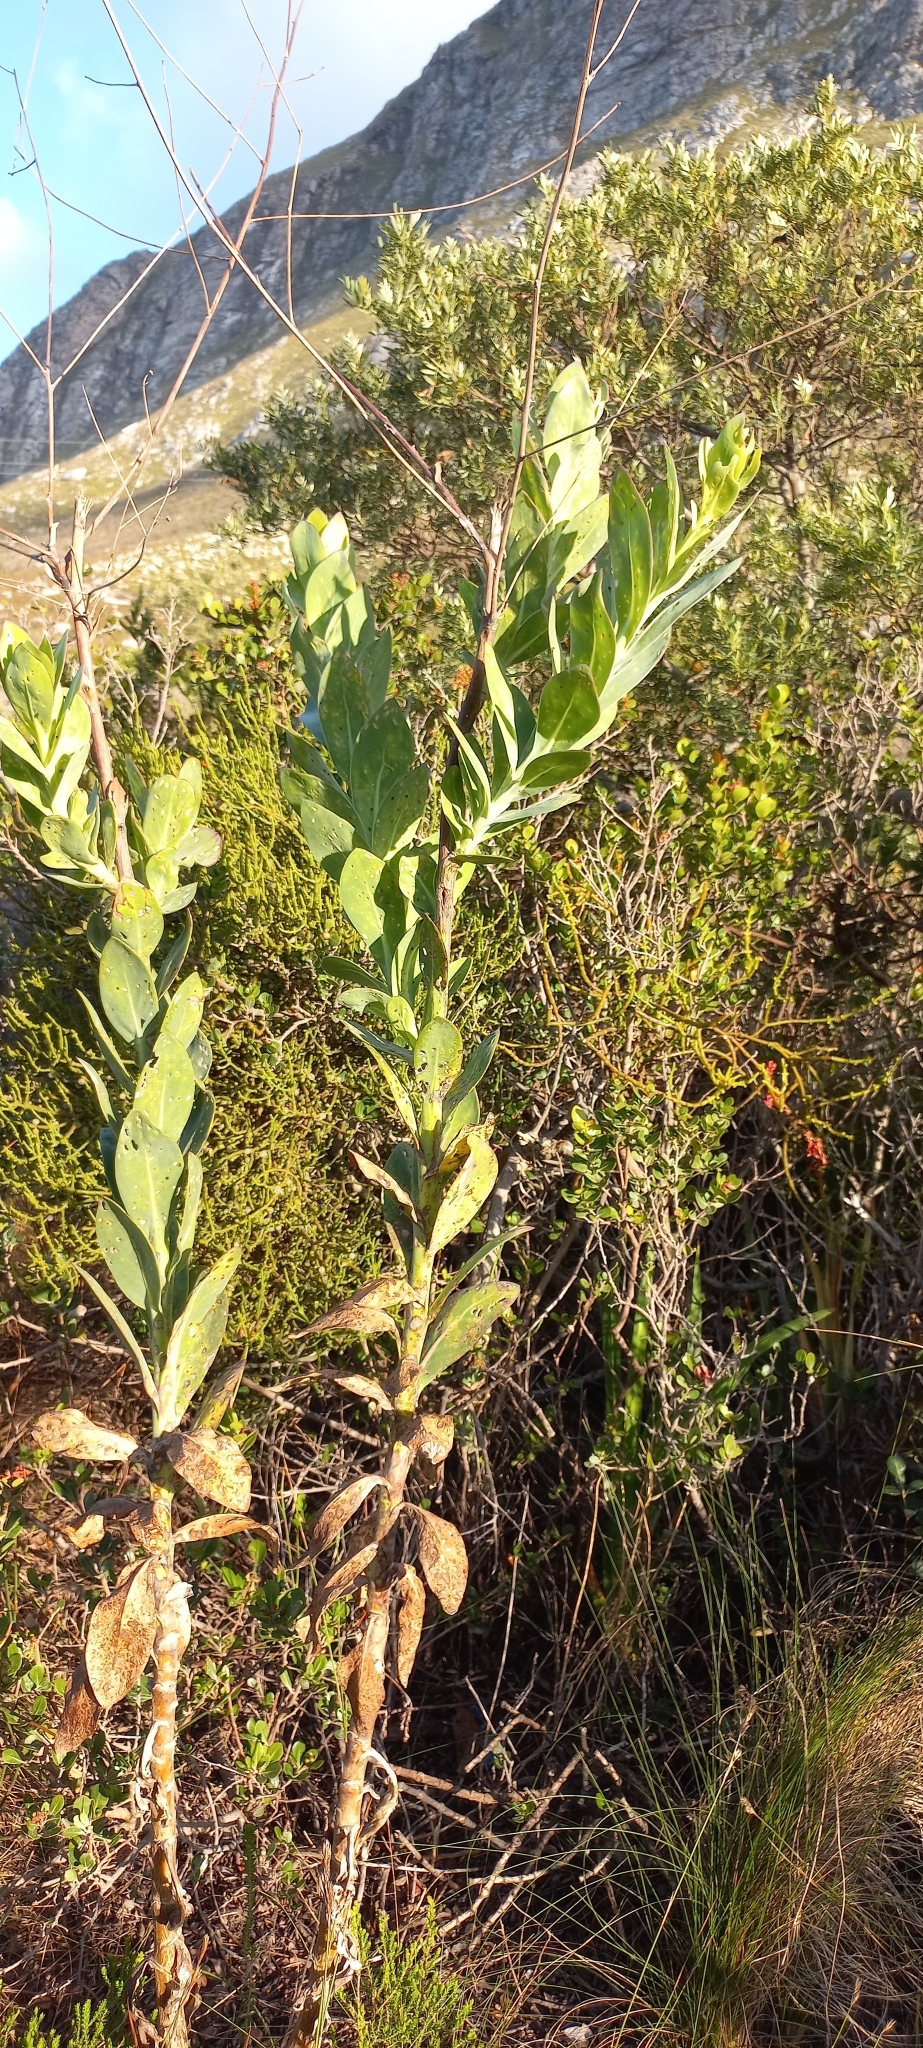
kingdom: Plantae
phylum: Tracheophyta
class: Magnoliopsida
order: Asterales
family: Asteraceae
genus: Othonna
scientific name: Othonna quinquedentata
